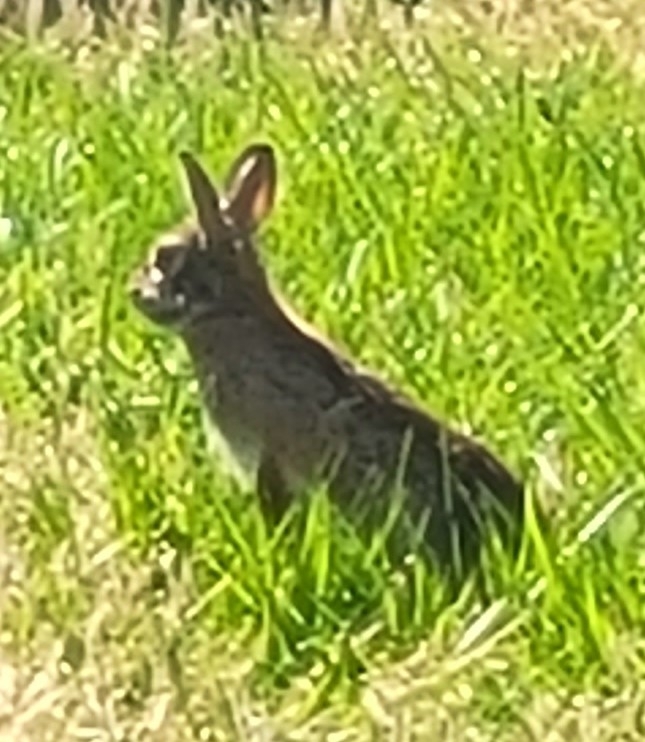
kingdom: Animalia
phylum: Chordata
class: Mammalia
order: Lagomorpha
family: Leporidae
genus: Sylvilagus
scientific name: Sylvilagus floridanus
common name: Eastern cottontail
